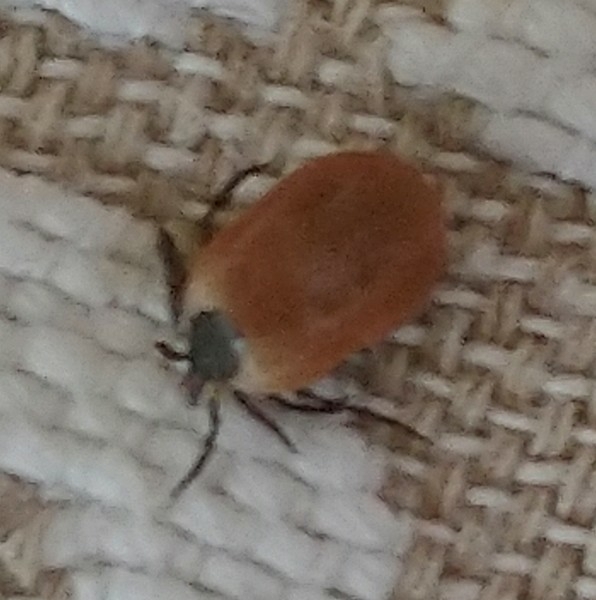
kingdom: Animalia
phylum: Arthropoda
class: Arachnida
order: Ixodida
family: Ixodidae
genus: Ixodes
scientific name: Ixodes ricinus
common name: Castor bean tick
